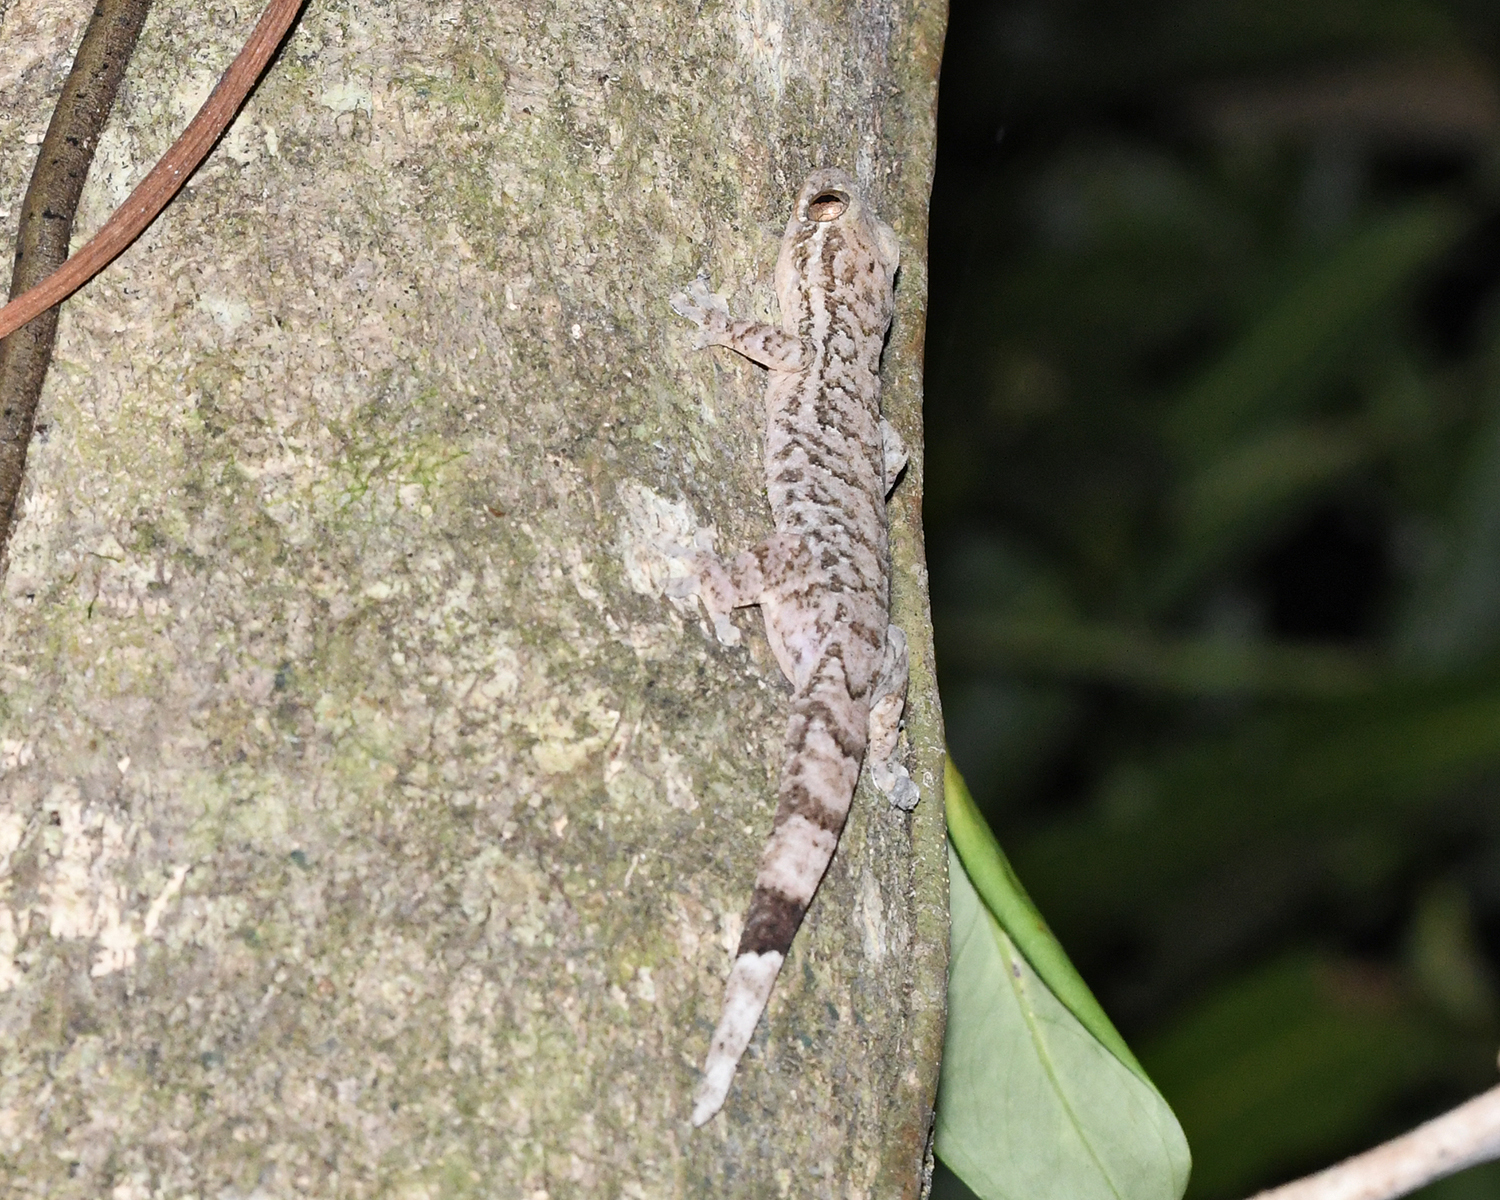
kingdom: Animalia
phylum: Chordata
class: Squamata
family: Phyllodactylidae
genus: Thecadactylus
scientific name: Thecadactylus rapicauda
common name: Turnip-tailed gecko
